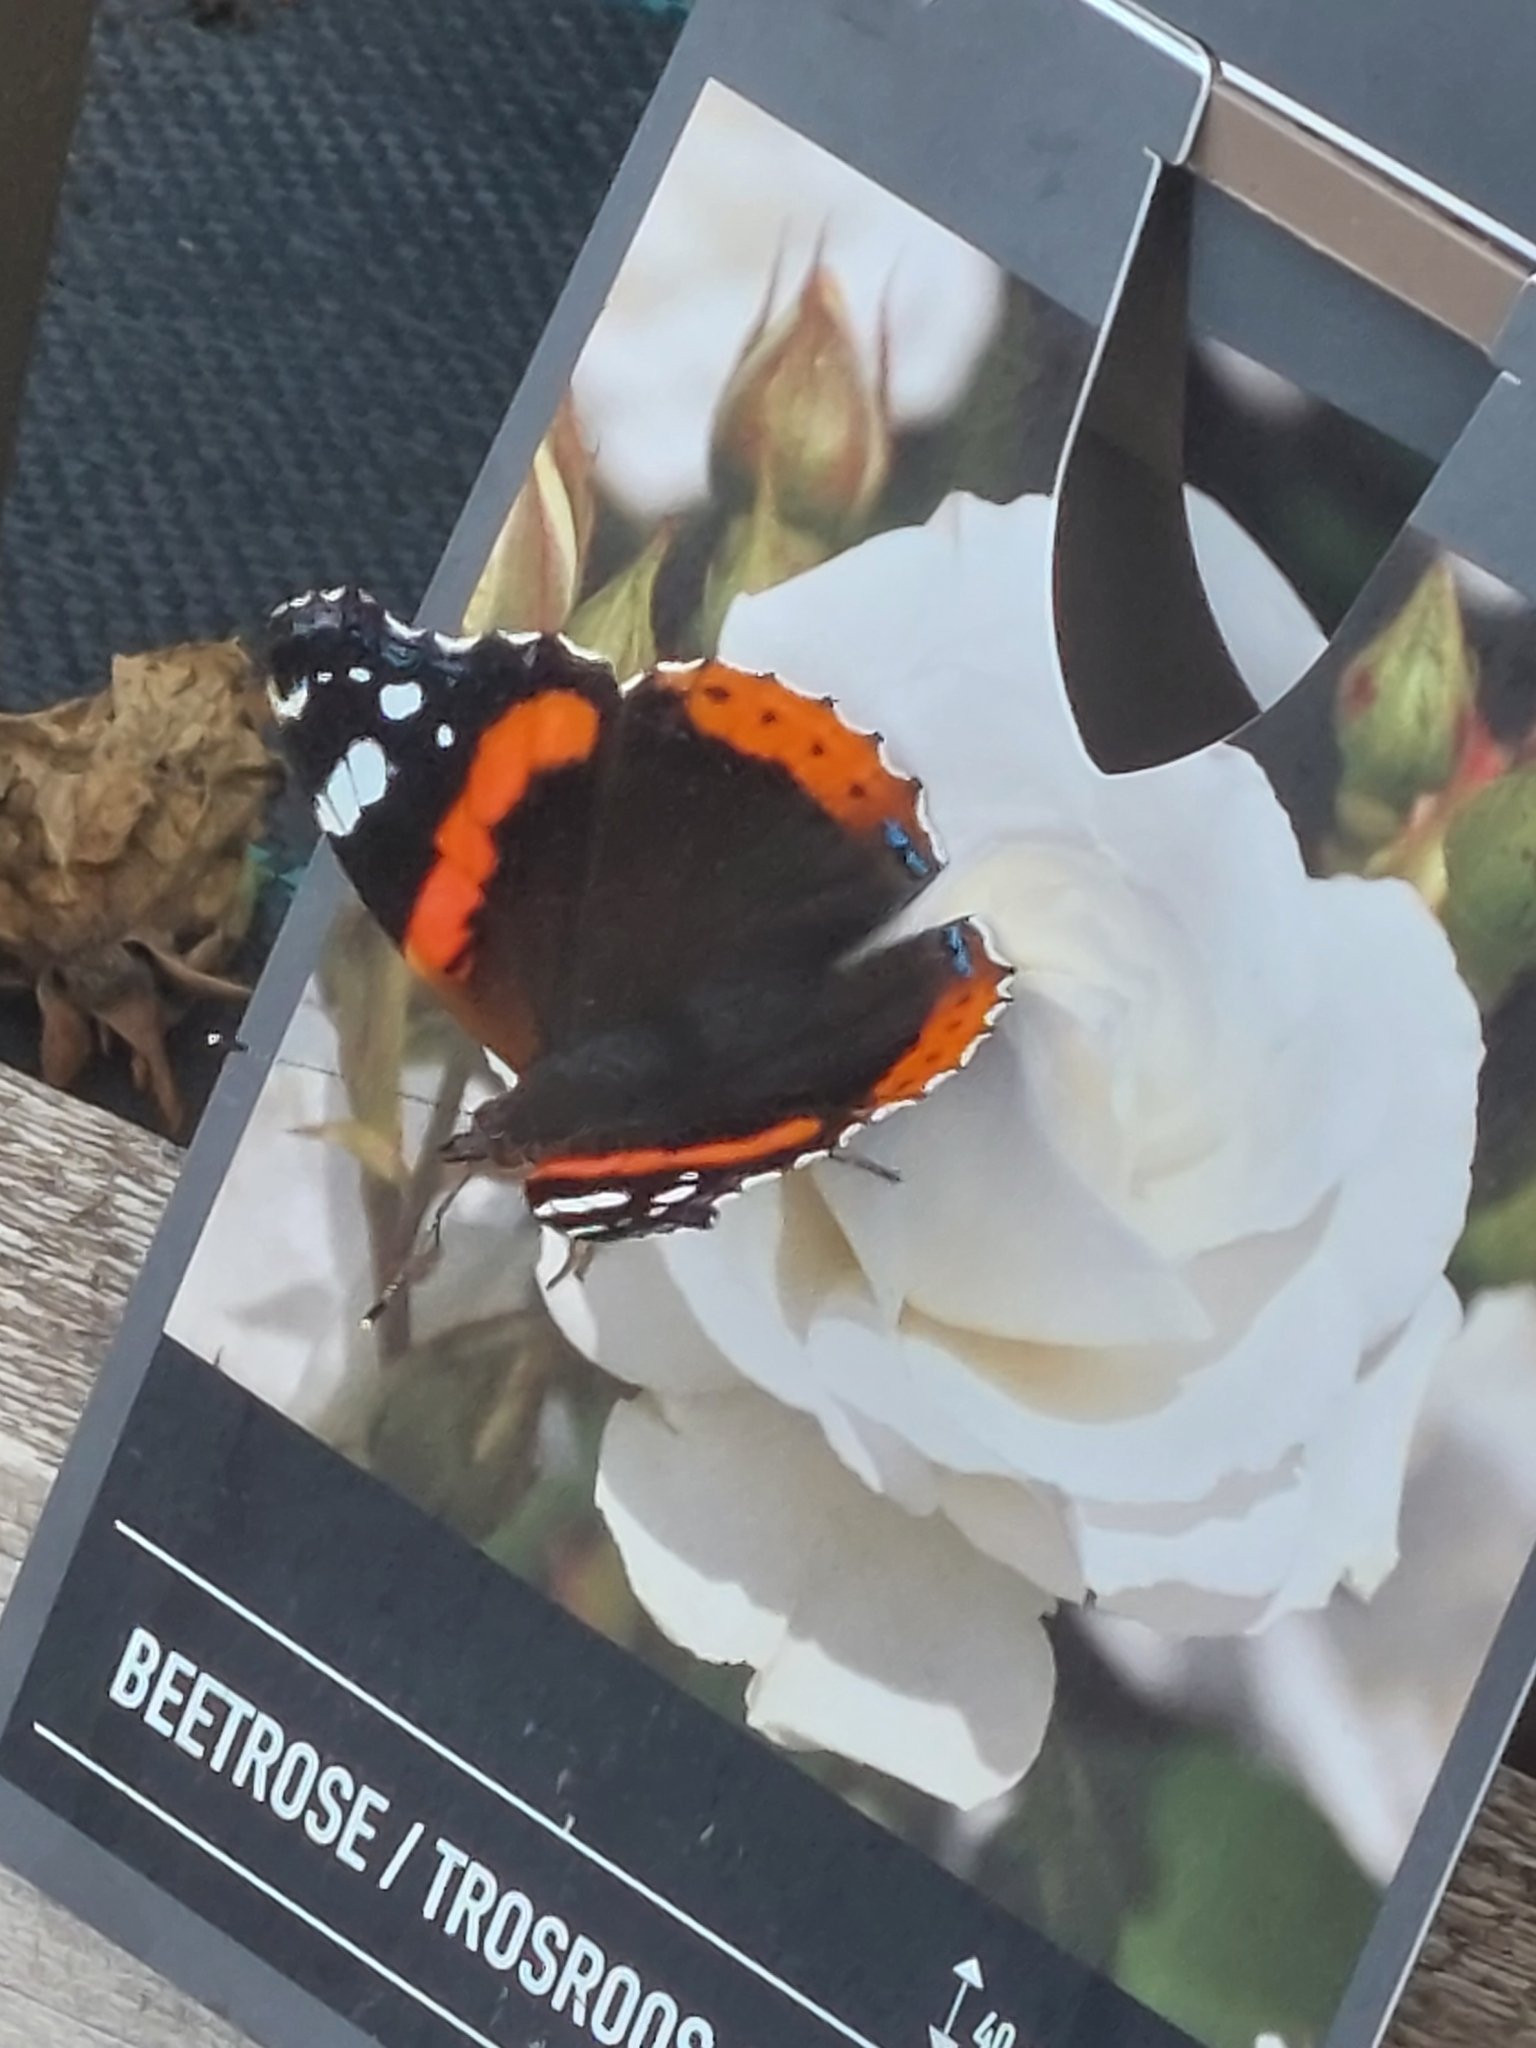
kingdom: Animalia
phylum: Arthropoda
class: Insecta
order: Lepidoptera
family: Nymphalidae
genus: Vanessa
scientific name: Vanessa atalanta
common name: Red admiral
